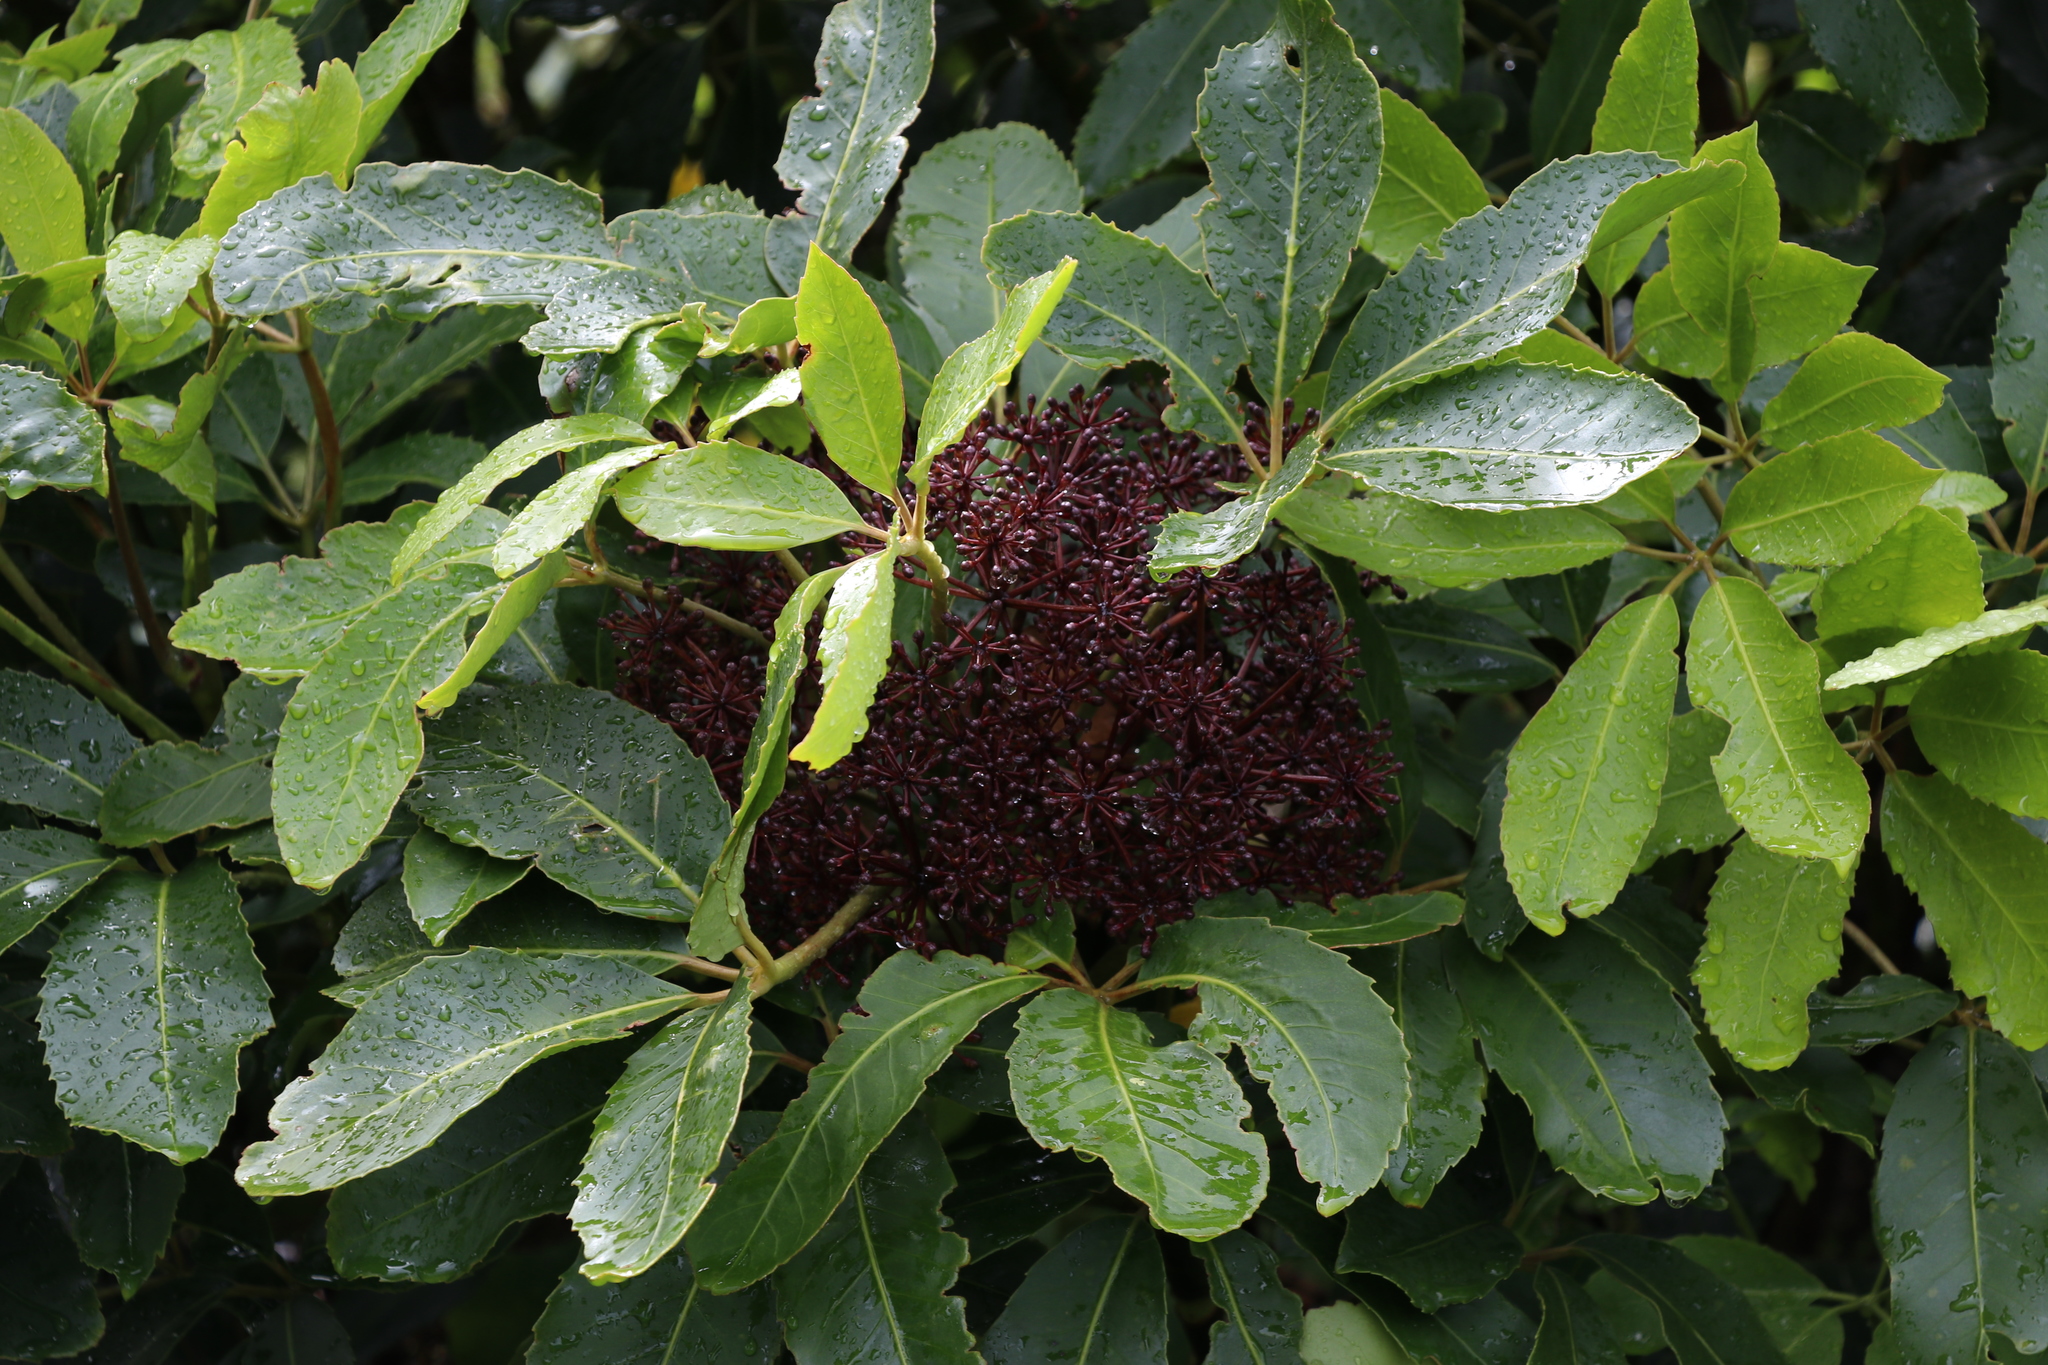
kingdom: Plantae
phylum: Tracheophyta
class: Magnoliopsida
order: Apiales
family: Araliaceae
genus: Neopanax
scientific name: Neopanax arboreus
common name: Five-fingers
